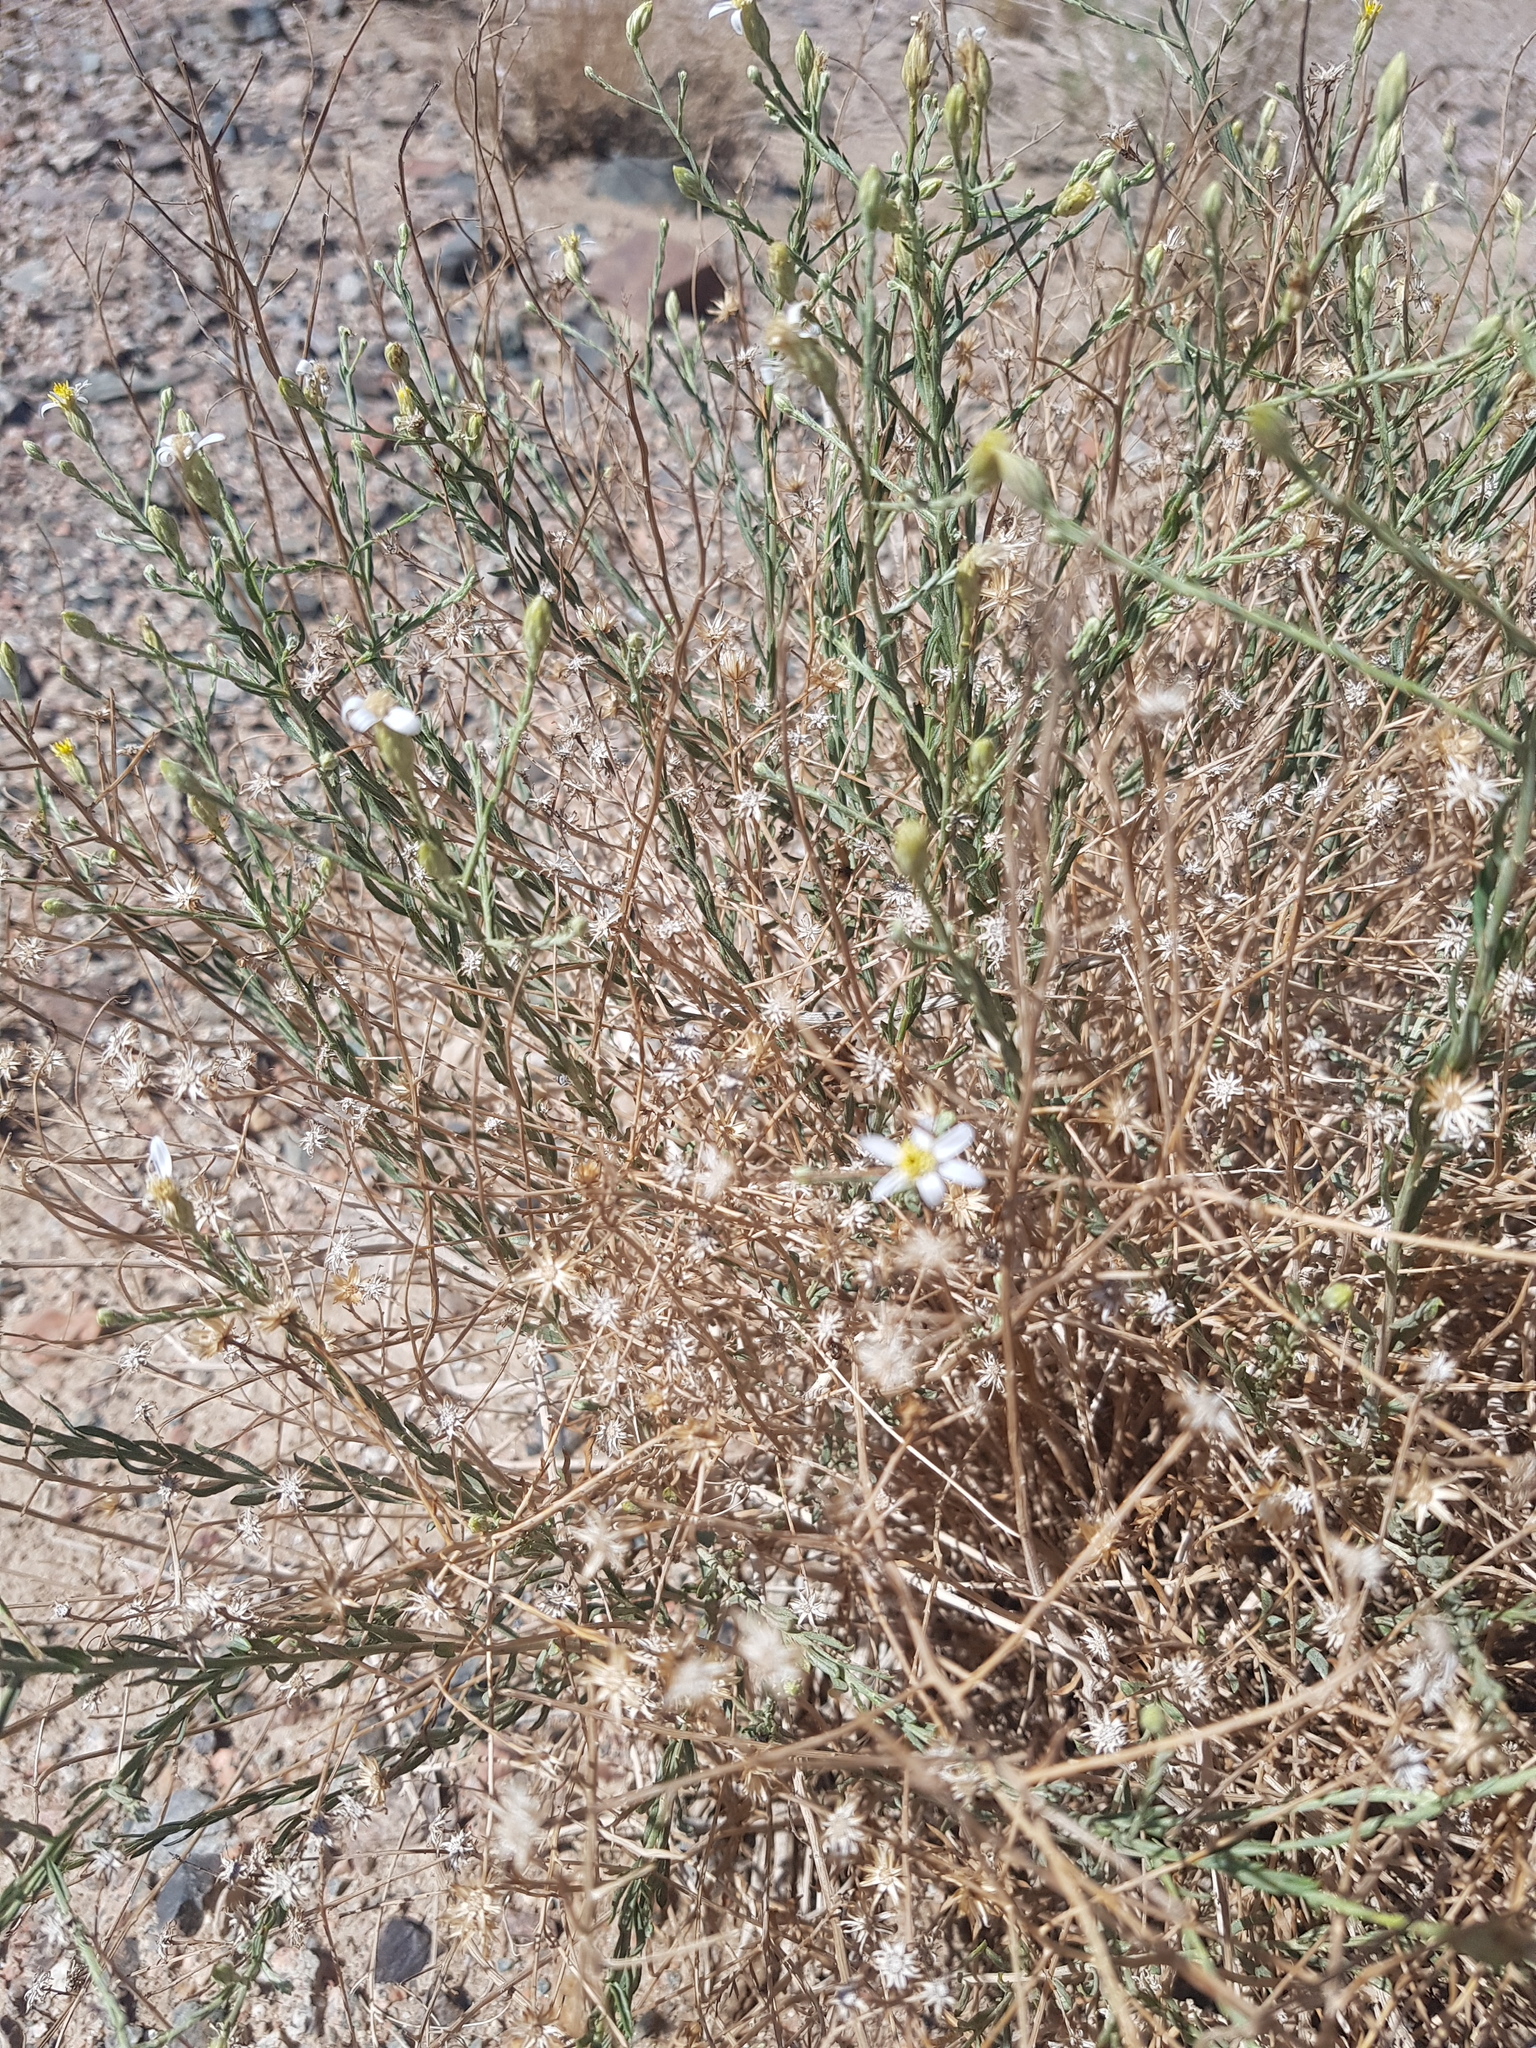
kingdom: Plantae
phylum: Tracheophyta
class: Magnoliopsida
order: Asterales
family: Asteraceae
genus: Asterothamnus
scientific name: Asterothamnus centraliasiaticus
